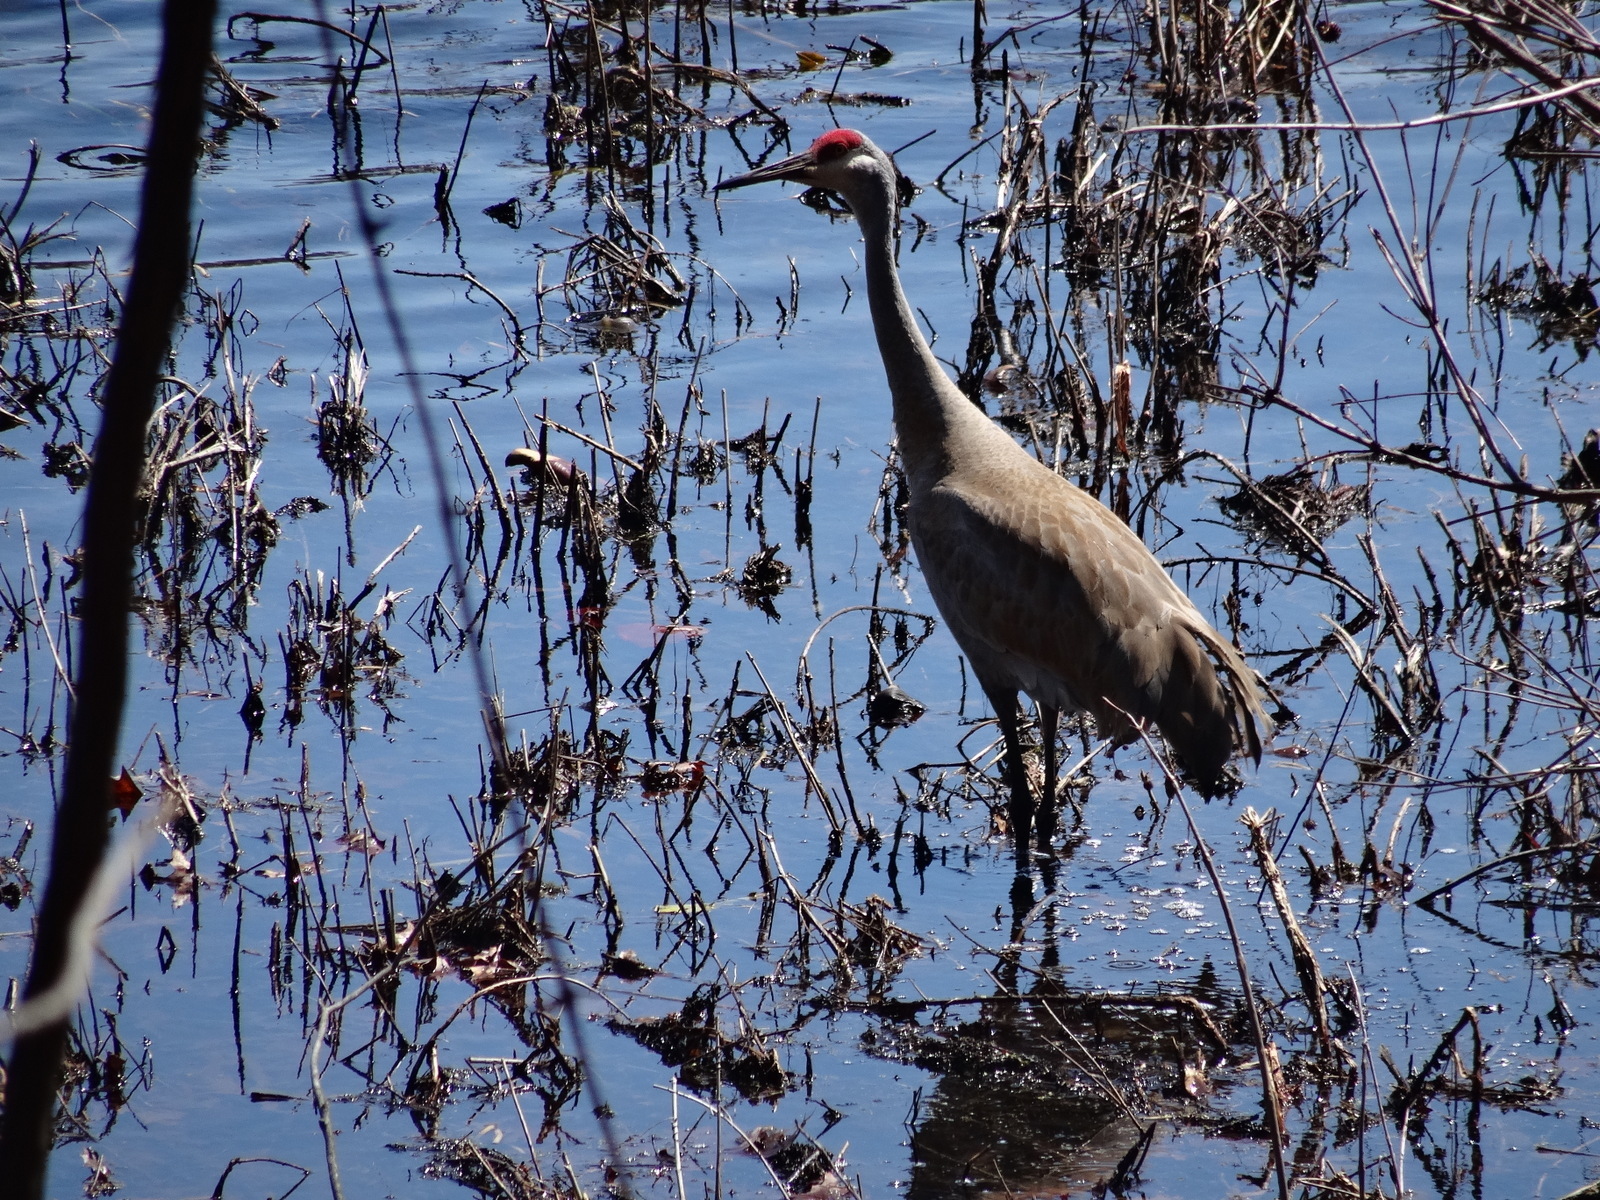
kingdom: Animalia
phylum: Chordata
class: Aves
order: Gruiformes
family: Gruidae
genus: Grus
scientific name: Grus canadensis
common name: Sandhill crane
